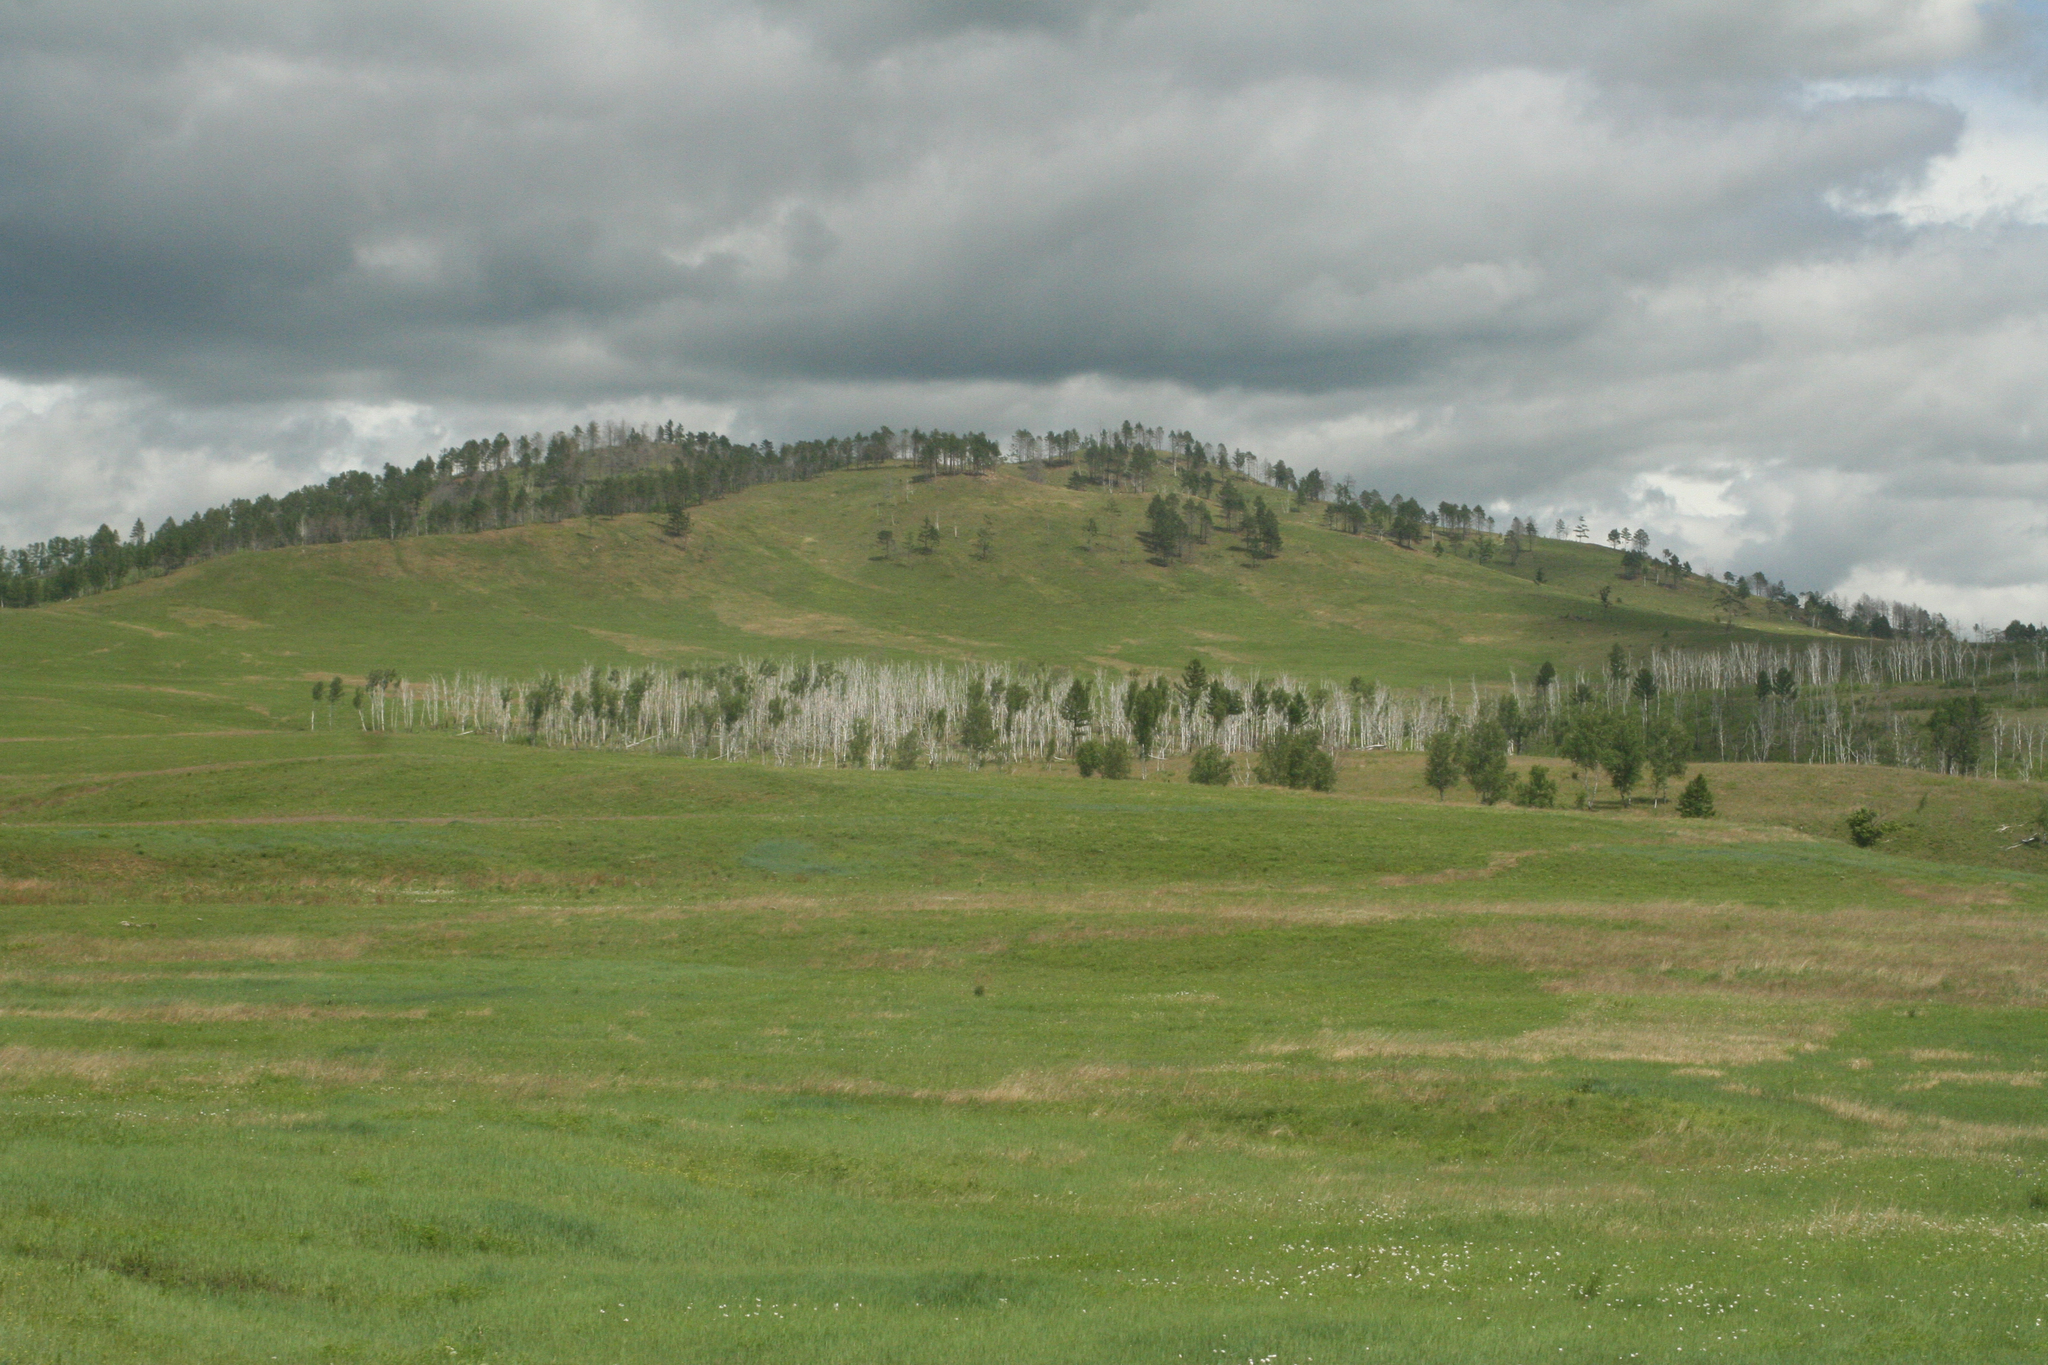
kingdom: Plantae
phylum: Tracheophyta
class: Magnoliopsida
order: Fagales
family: Betulaceae
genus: Betula
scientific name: Betula pendula
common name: Silver birch
